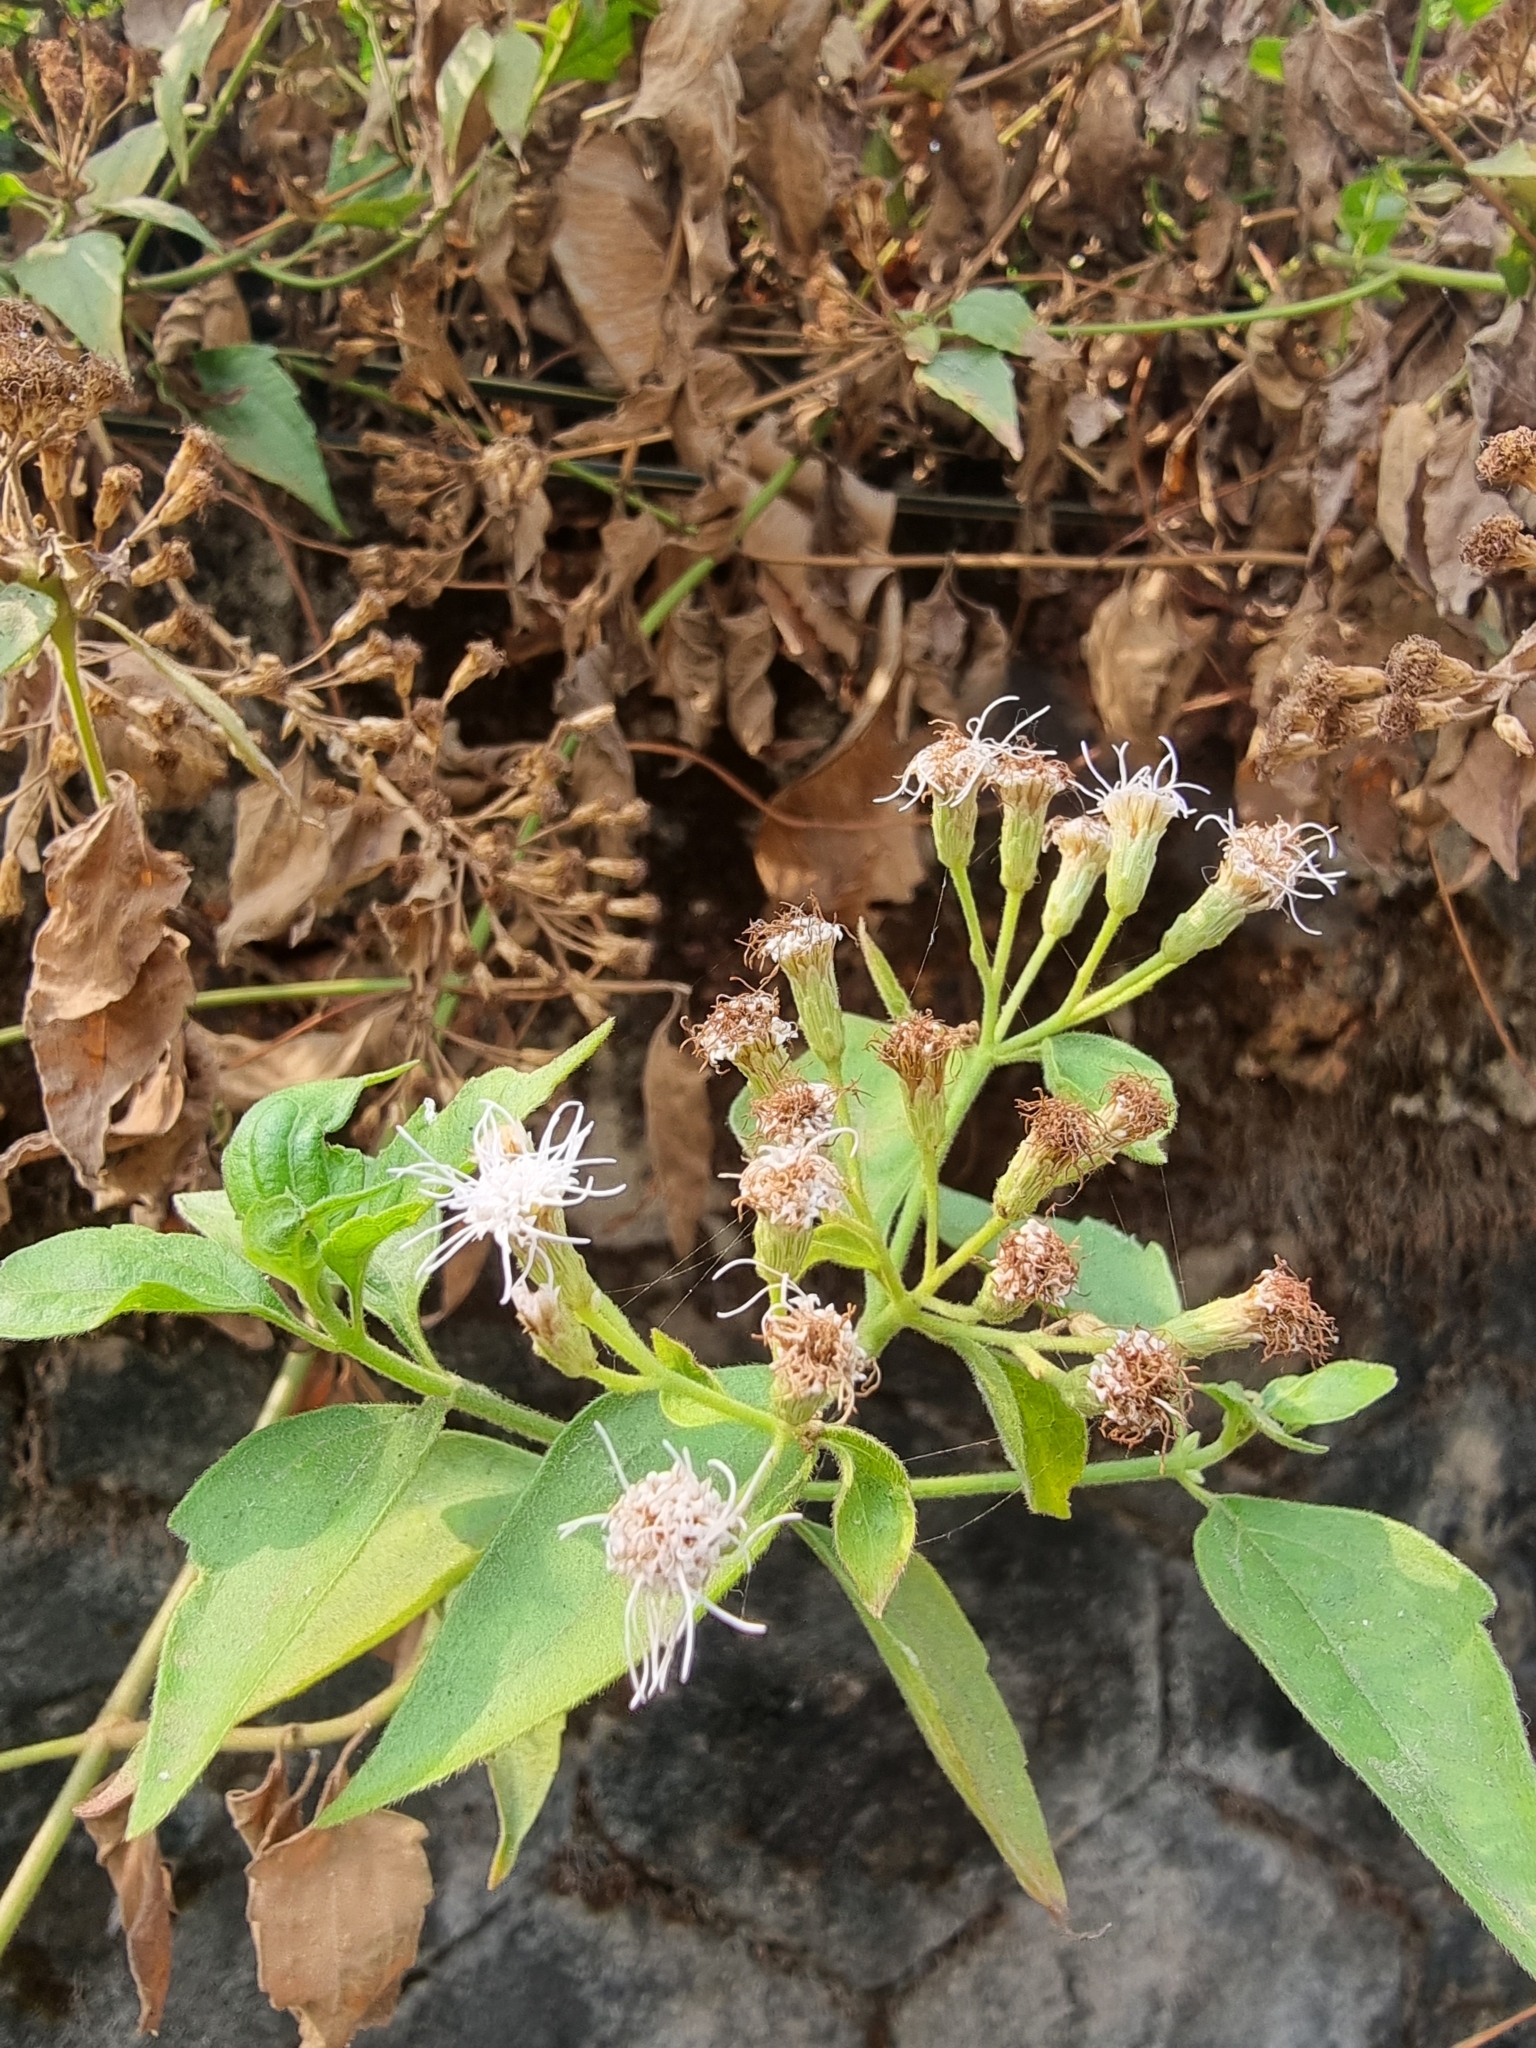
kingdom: Plantae
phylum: Tracheophyta
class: Magnoliopsida
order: Asterales
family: Asteraceae
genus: Chromolaena
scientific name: Chromolaena odorata
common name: Siamweed
